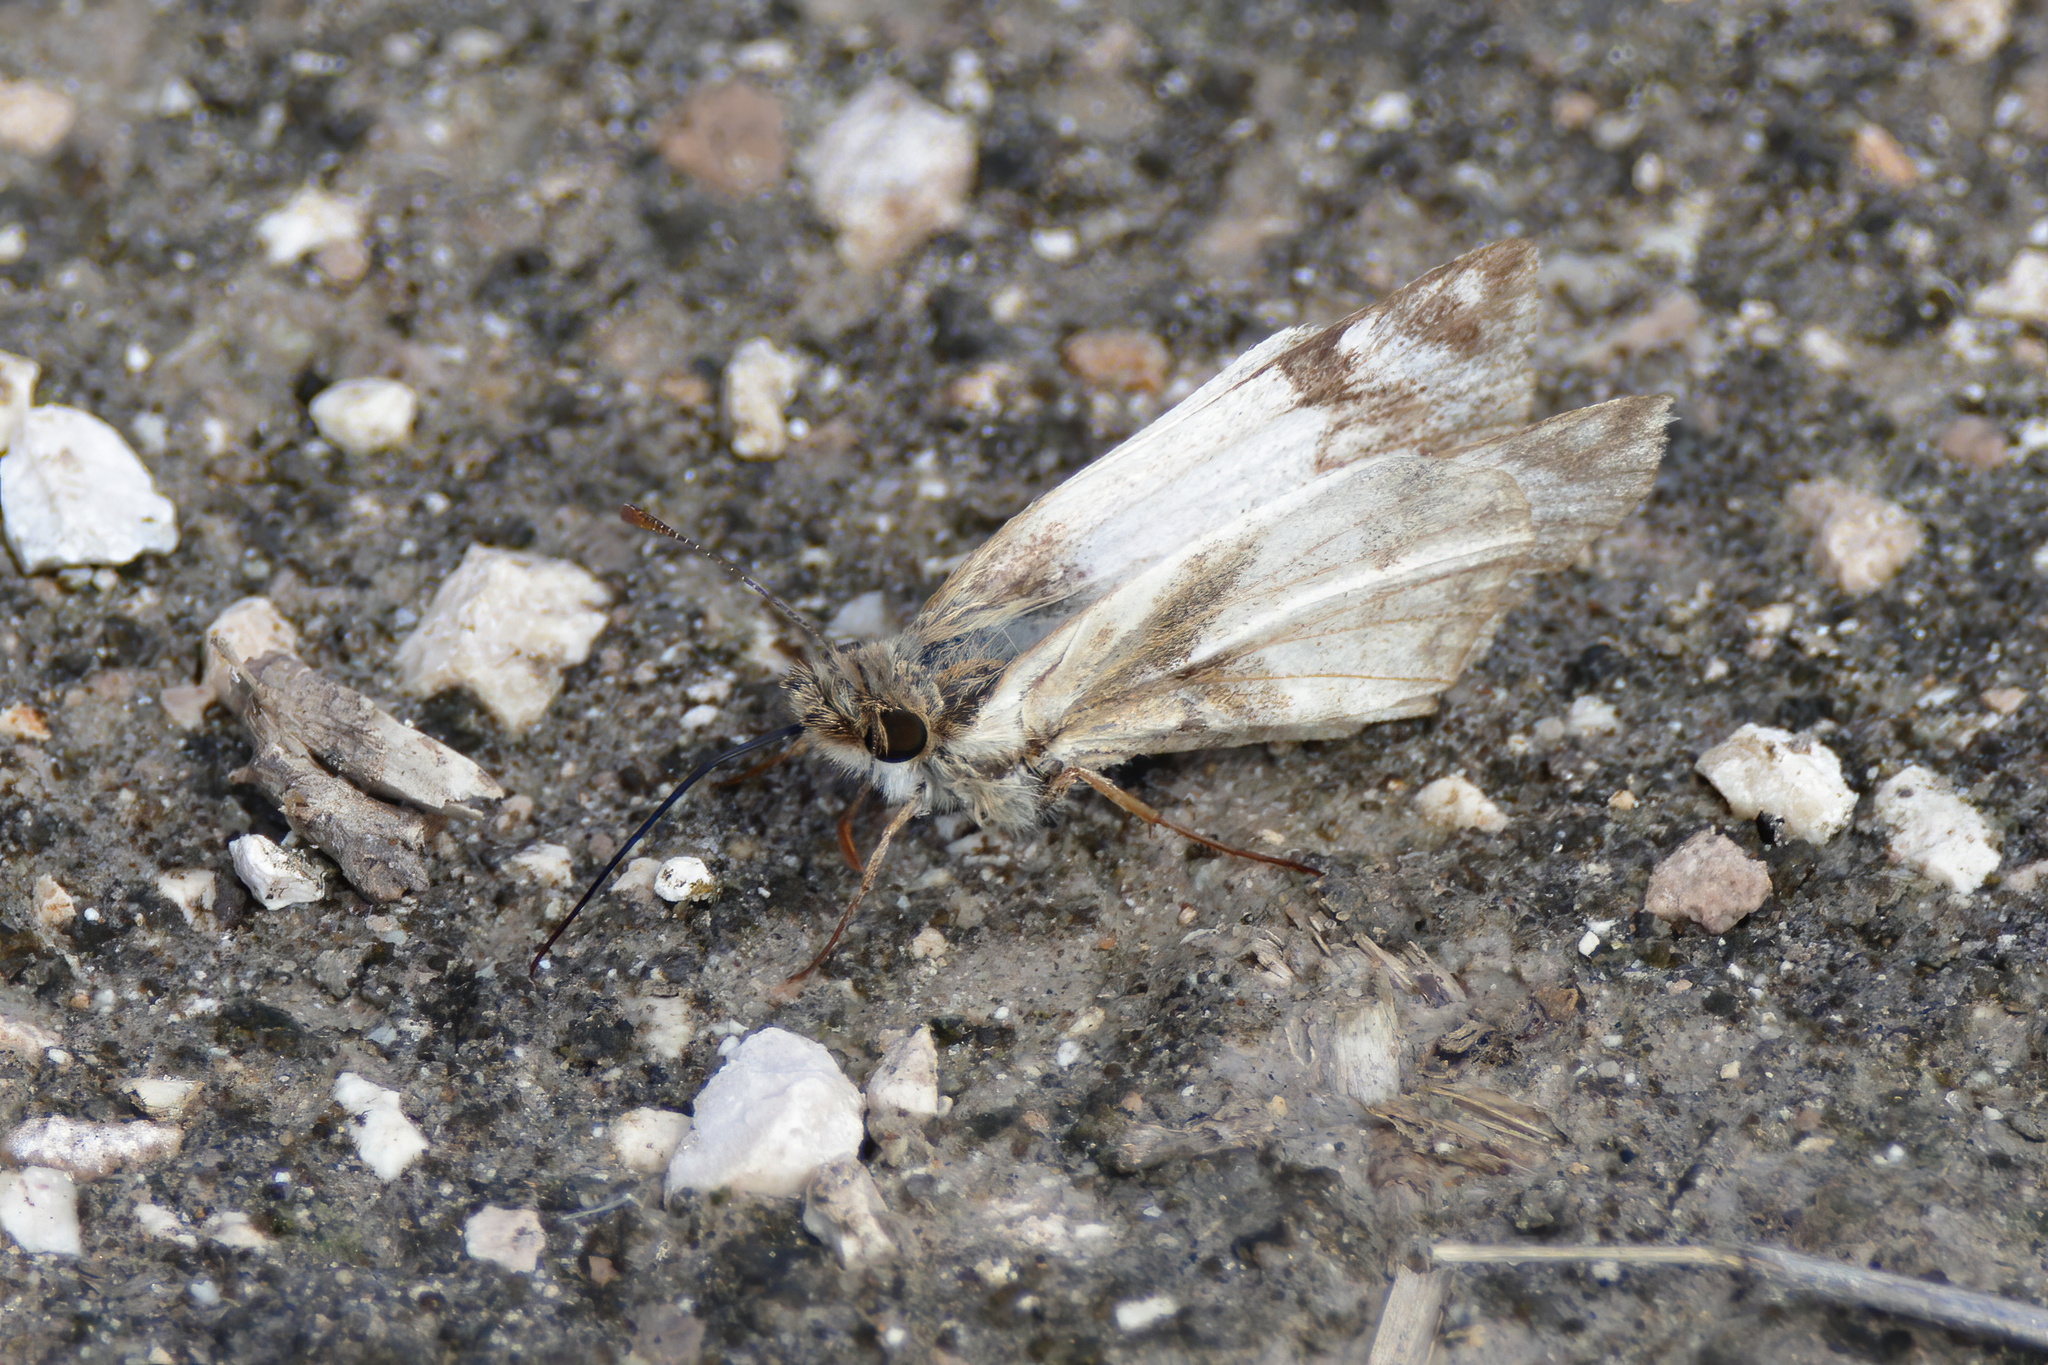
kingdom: Animalia
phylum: Arthropoda
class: Insecta
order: Lepidoptera
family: Hesperiidae
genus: Heliopetes
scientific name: Heliopetes laviana
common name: Laviana white-skipper
